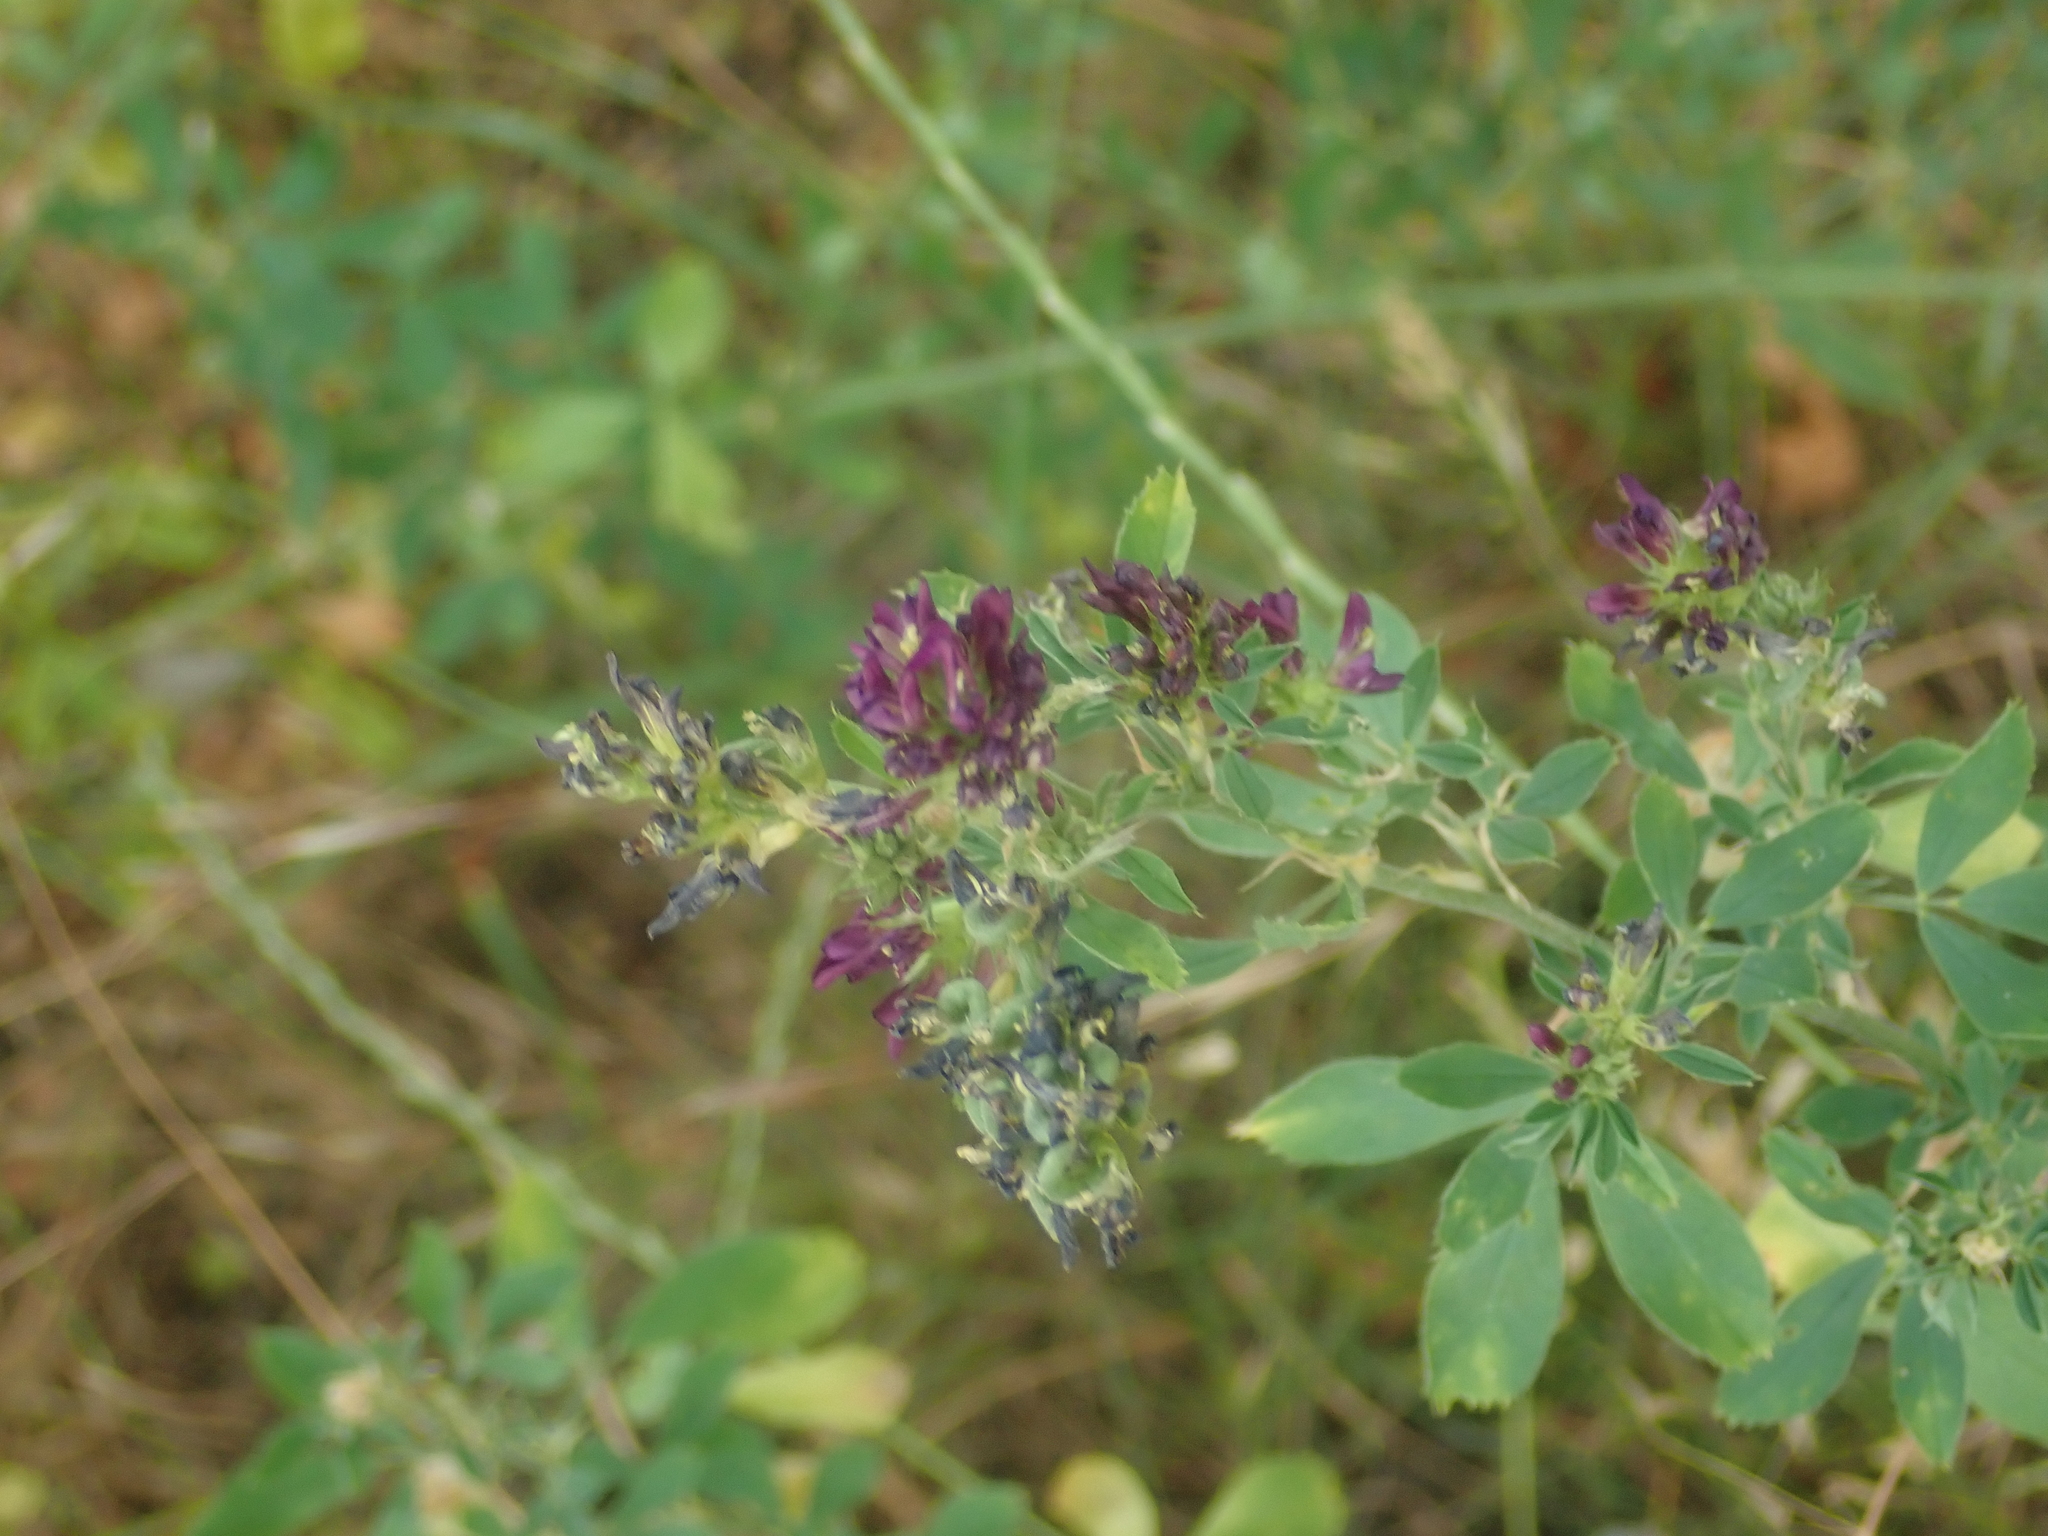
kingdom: Plantae
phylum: Tracheophyta
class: Magnoliopsida
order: Fabales
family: Fabaceae
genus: Medicago
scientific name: Medicago varia
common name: Sand lucerne
